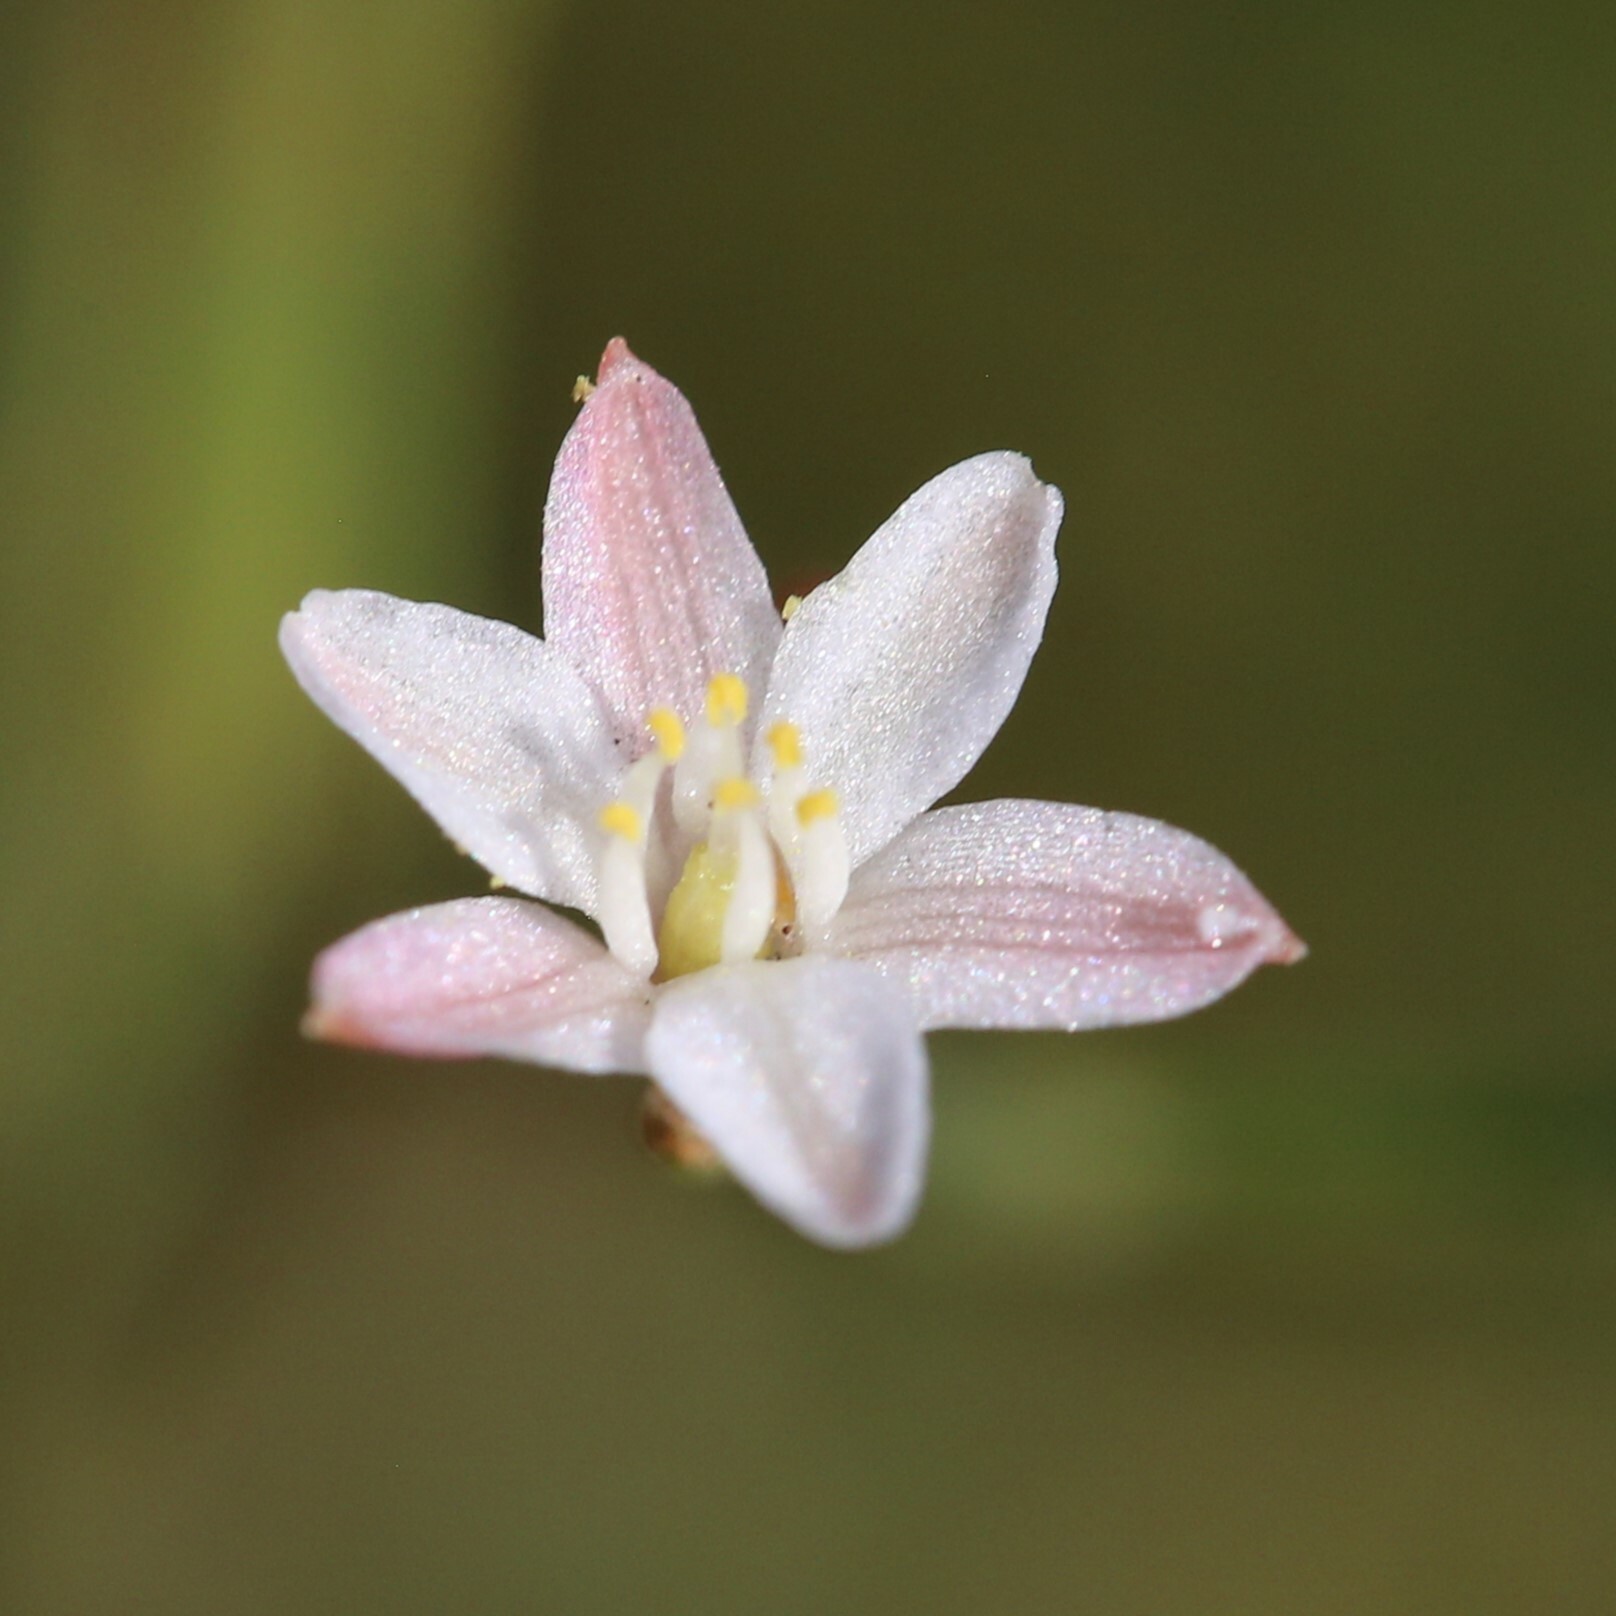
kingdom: Plantae
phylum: Tracheophyta
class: Liliopsida
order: Asparagales
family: Asphodelaceae
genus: Corynotheca
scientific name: Corynotheca micrantha
